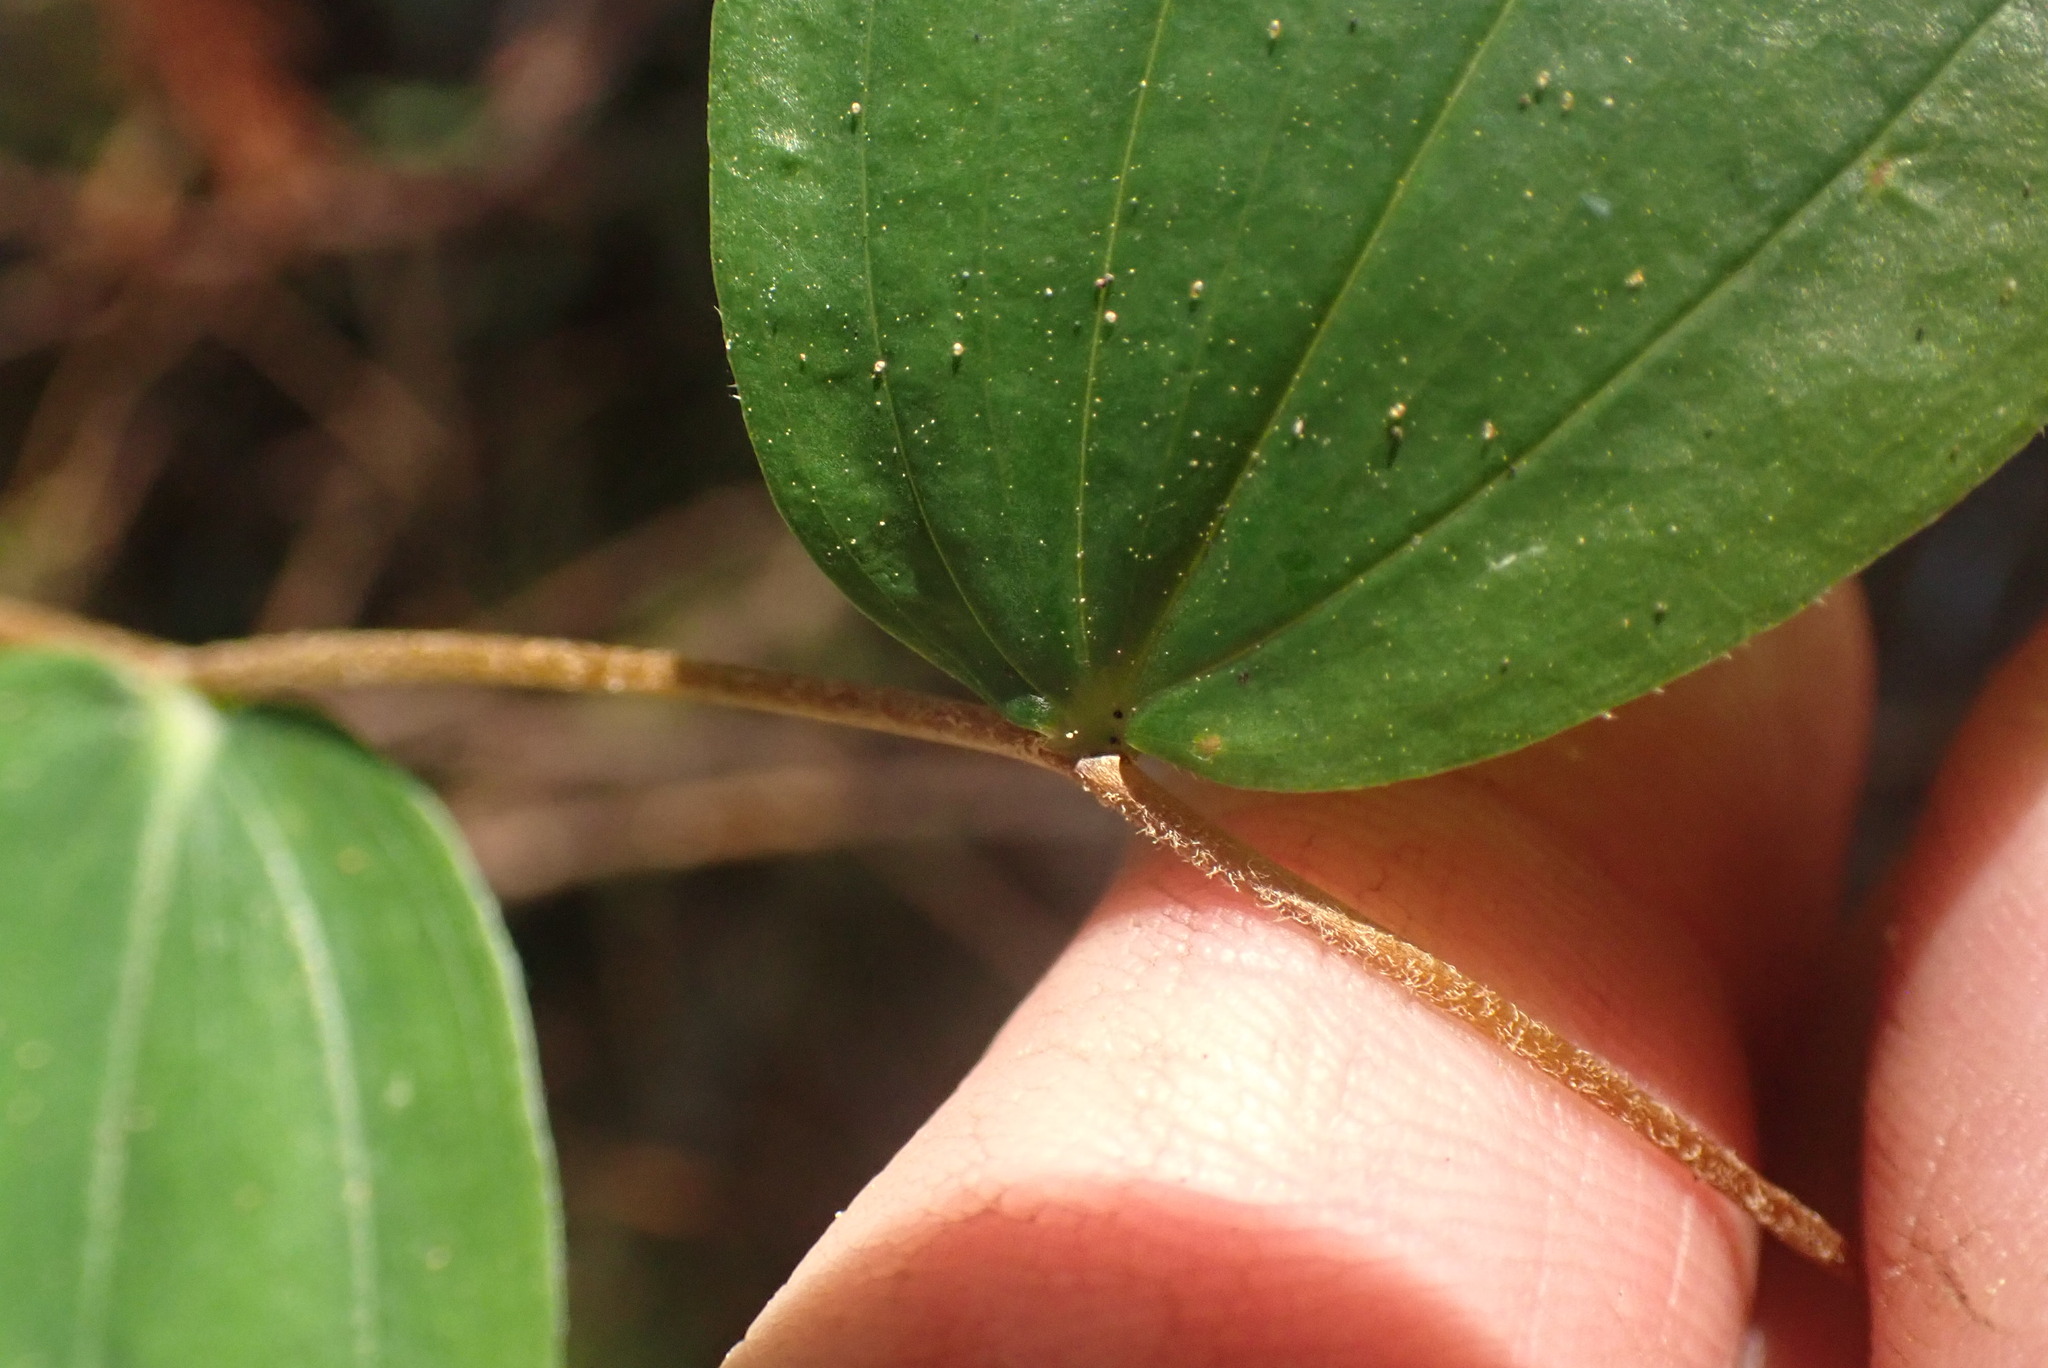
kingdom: Plantae
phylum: Tracheophyta
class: Liliopsida
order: Liliales
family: Liliaceae
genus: Prosartes
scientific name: Prosartes smithii
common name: Fairy-lantern
